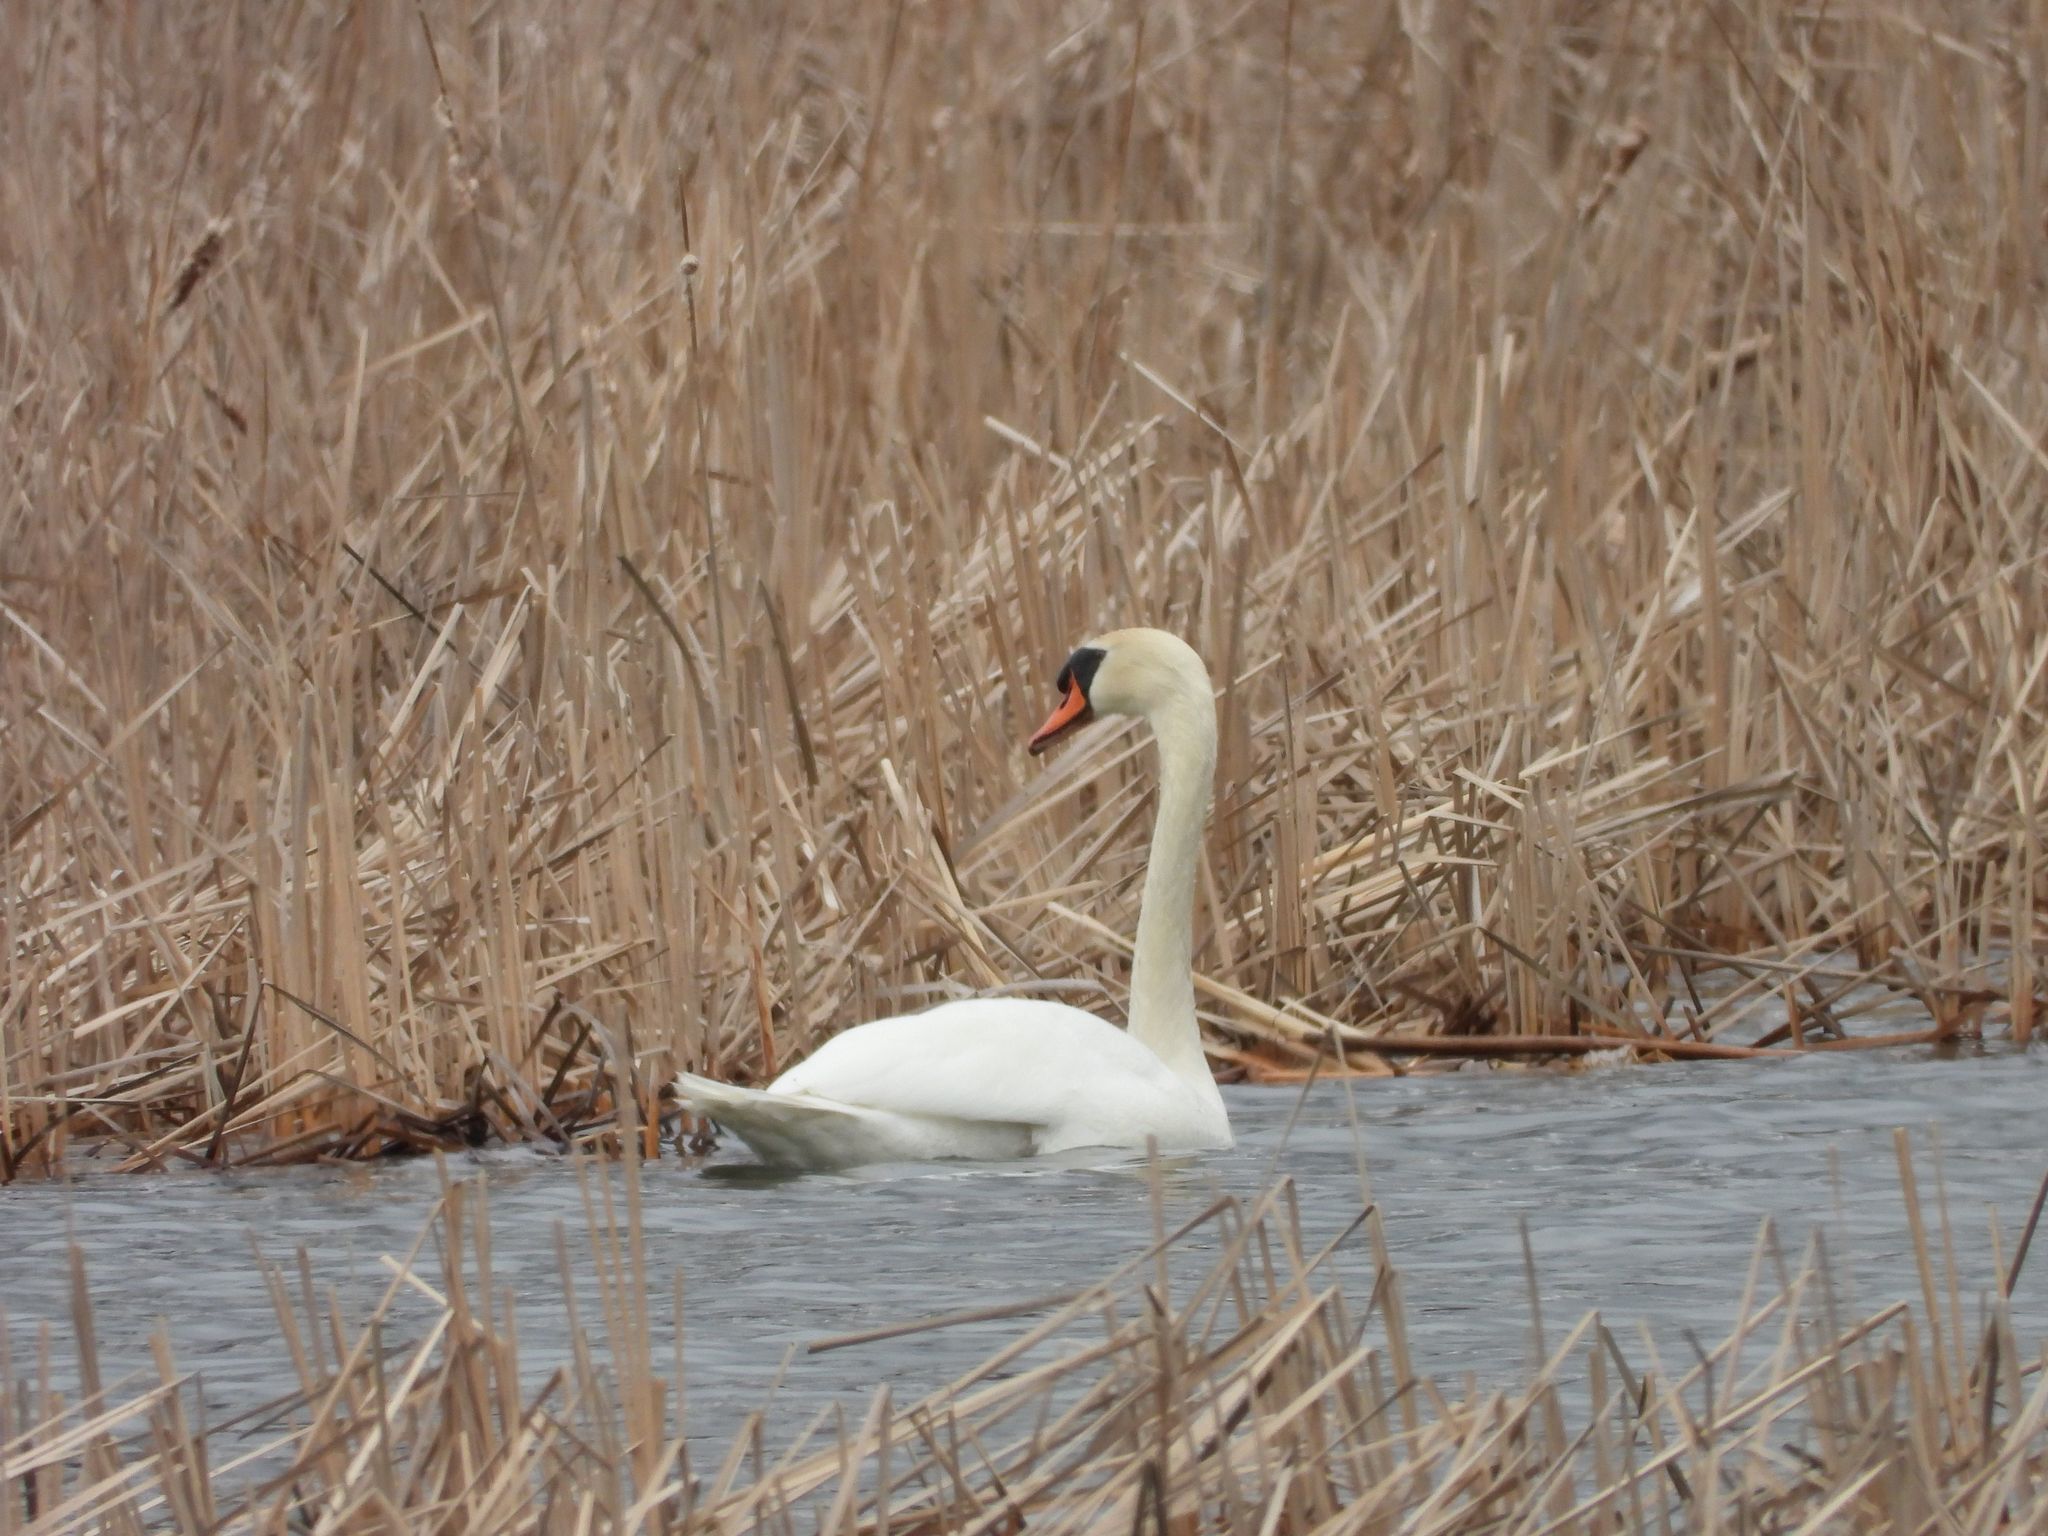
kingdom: Animalia
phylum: Chordata
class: Aves
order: Anseriformes
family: Anatidae
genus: Cygnus
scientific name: Cygnus olor
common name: Mute swan
